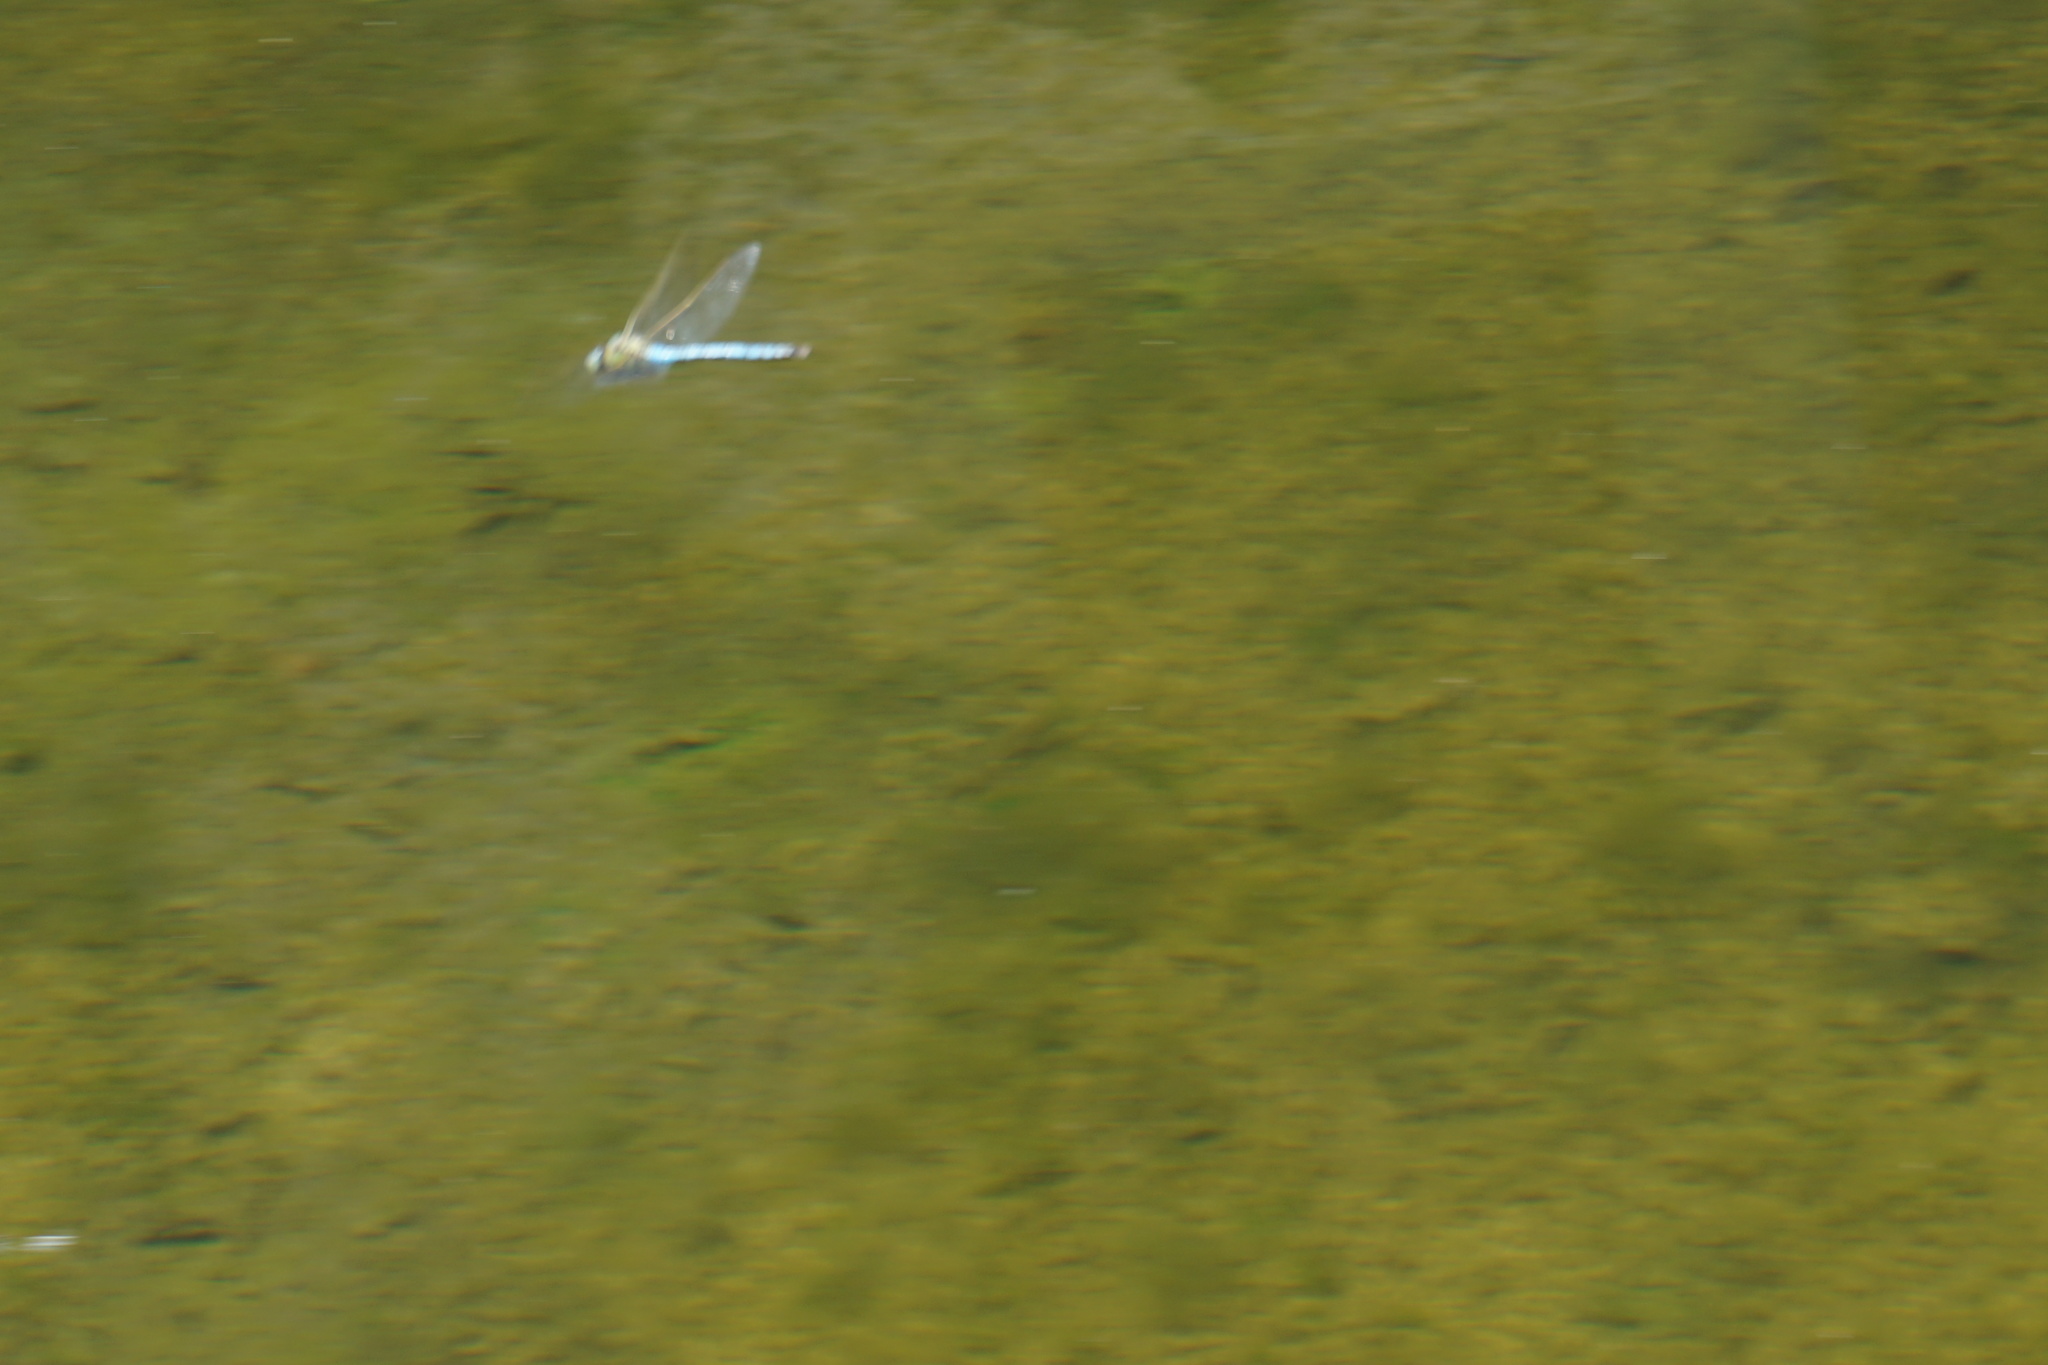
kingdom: Animalia
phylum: Arthropoda
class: Insecta
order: Odonata
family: Aeshnidae
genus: Anax
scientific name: Anax imperator
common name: Emperor dragonfly
